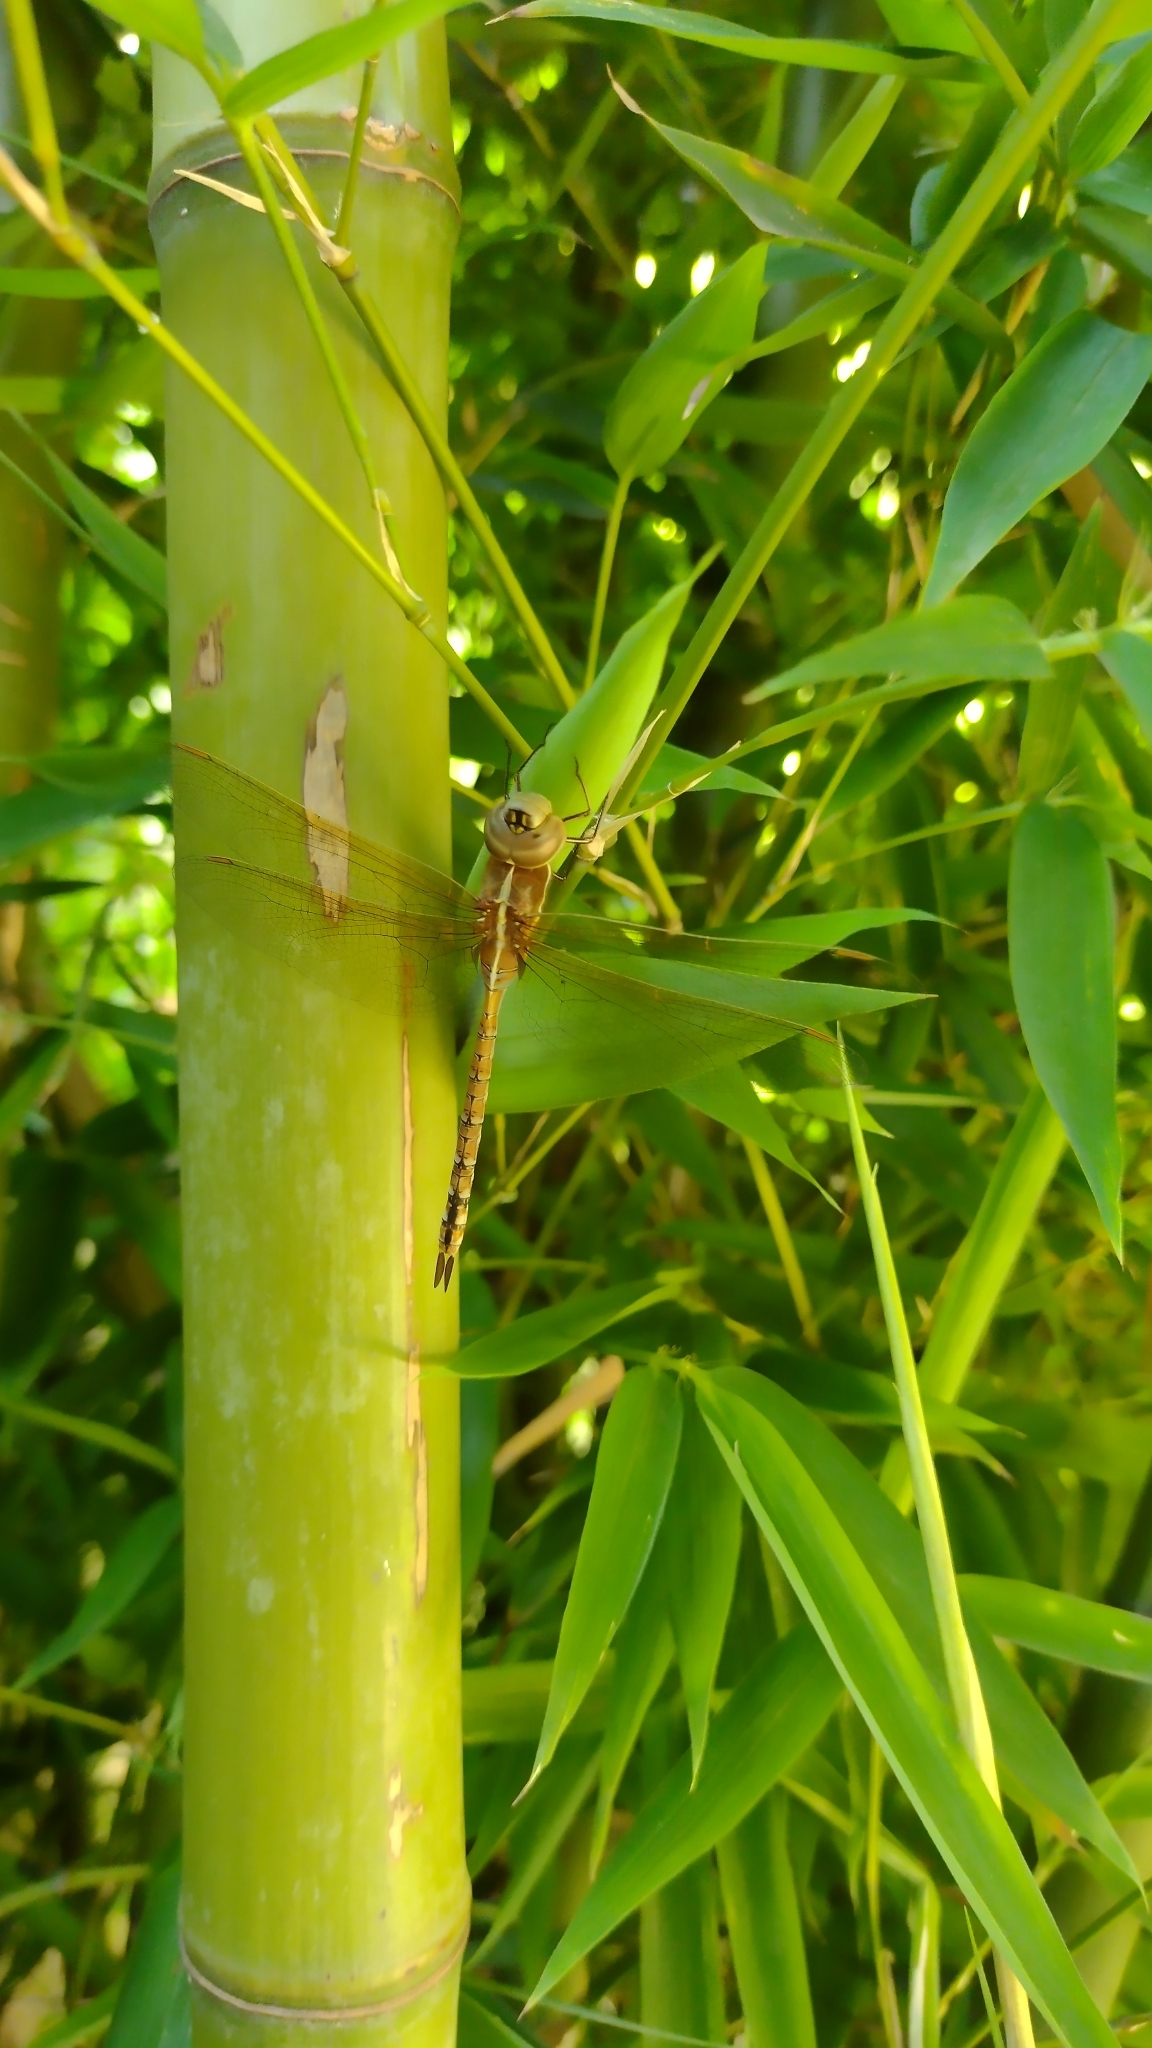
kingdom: Animalia
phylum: Arthropoda
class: Insecta
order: Odonata
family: Aeshnidae
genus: Rhionaeschna
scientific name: Rhionaeschna bonariensis
